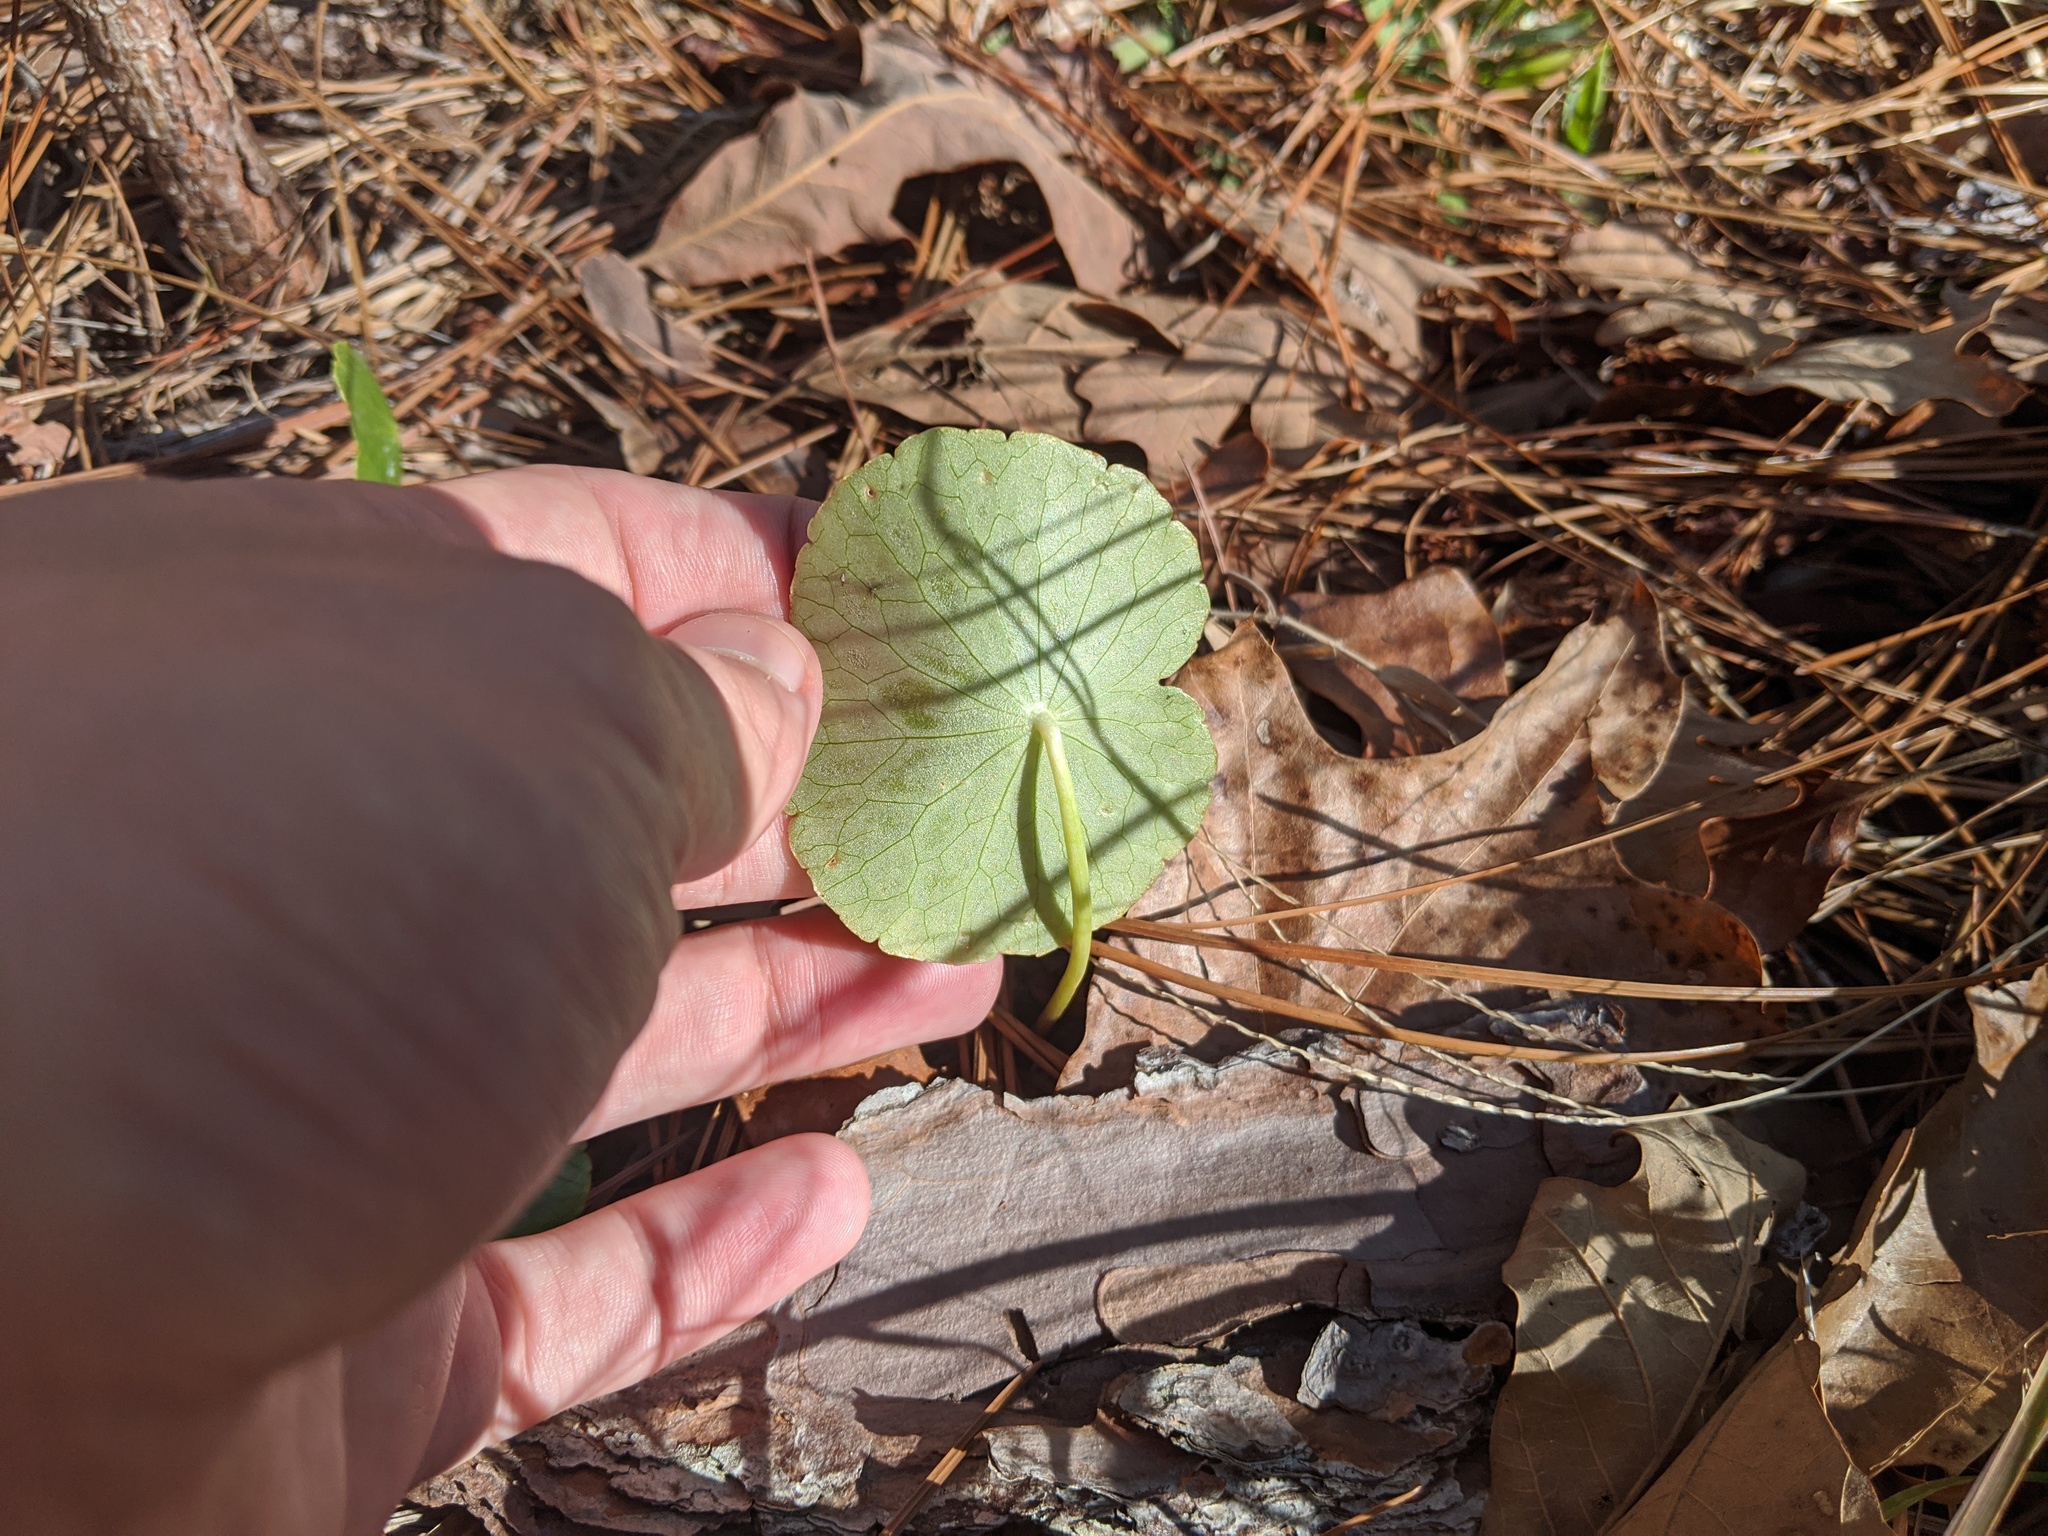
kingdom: Plantae
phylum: Tracheophyta
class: Magnoliopsida
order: Apiales
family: Araliaceae
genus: Hydrocotyle
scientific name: Hydrocotyle bonariensis
